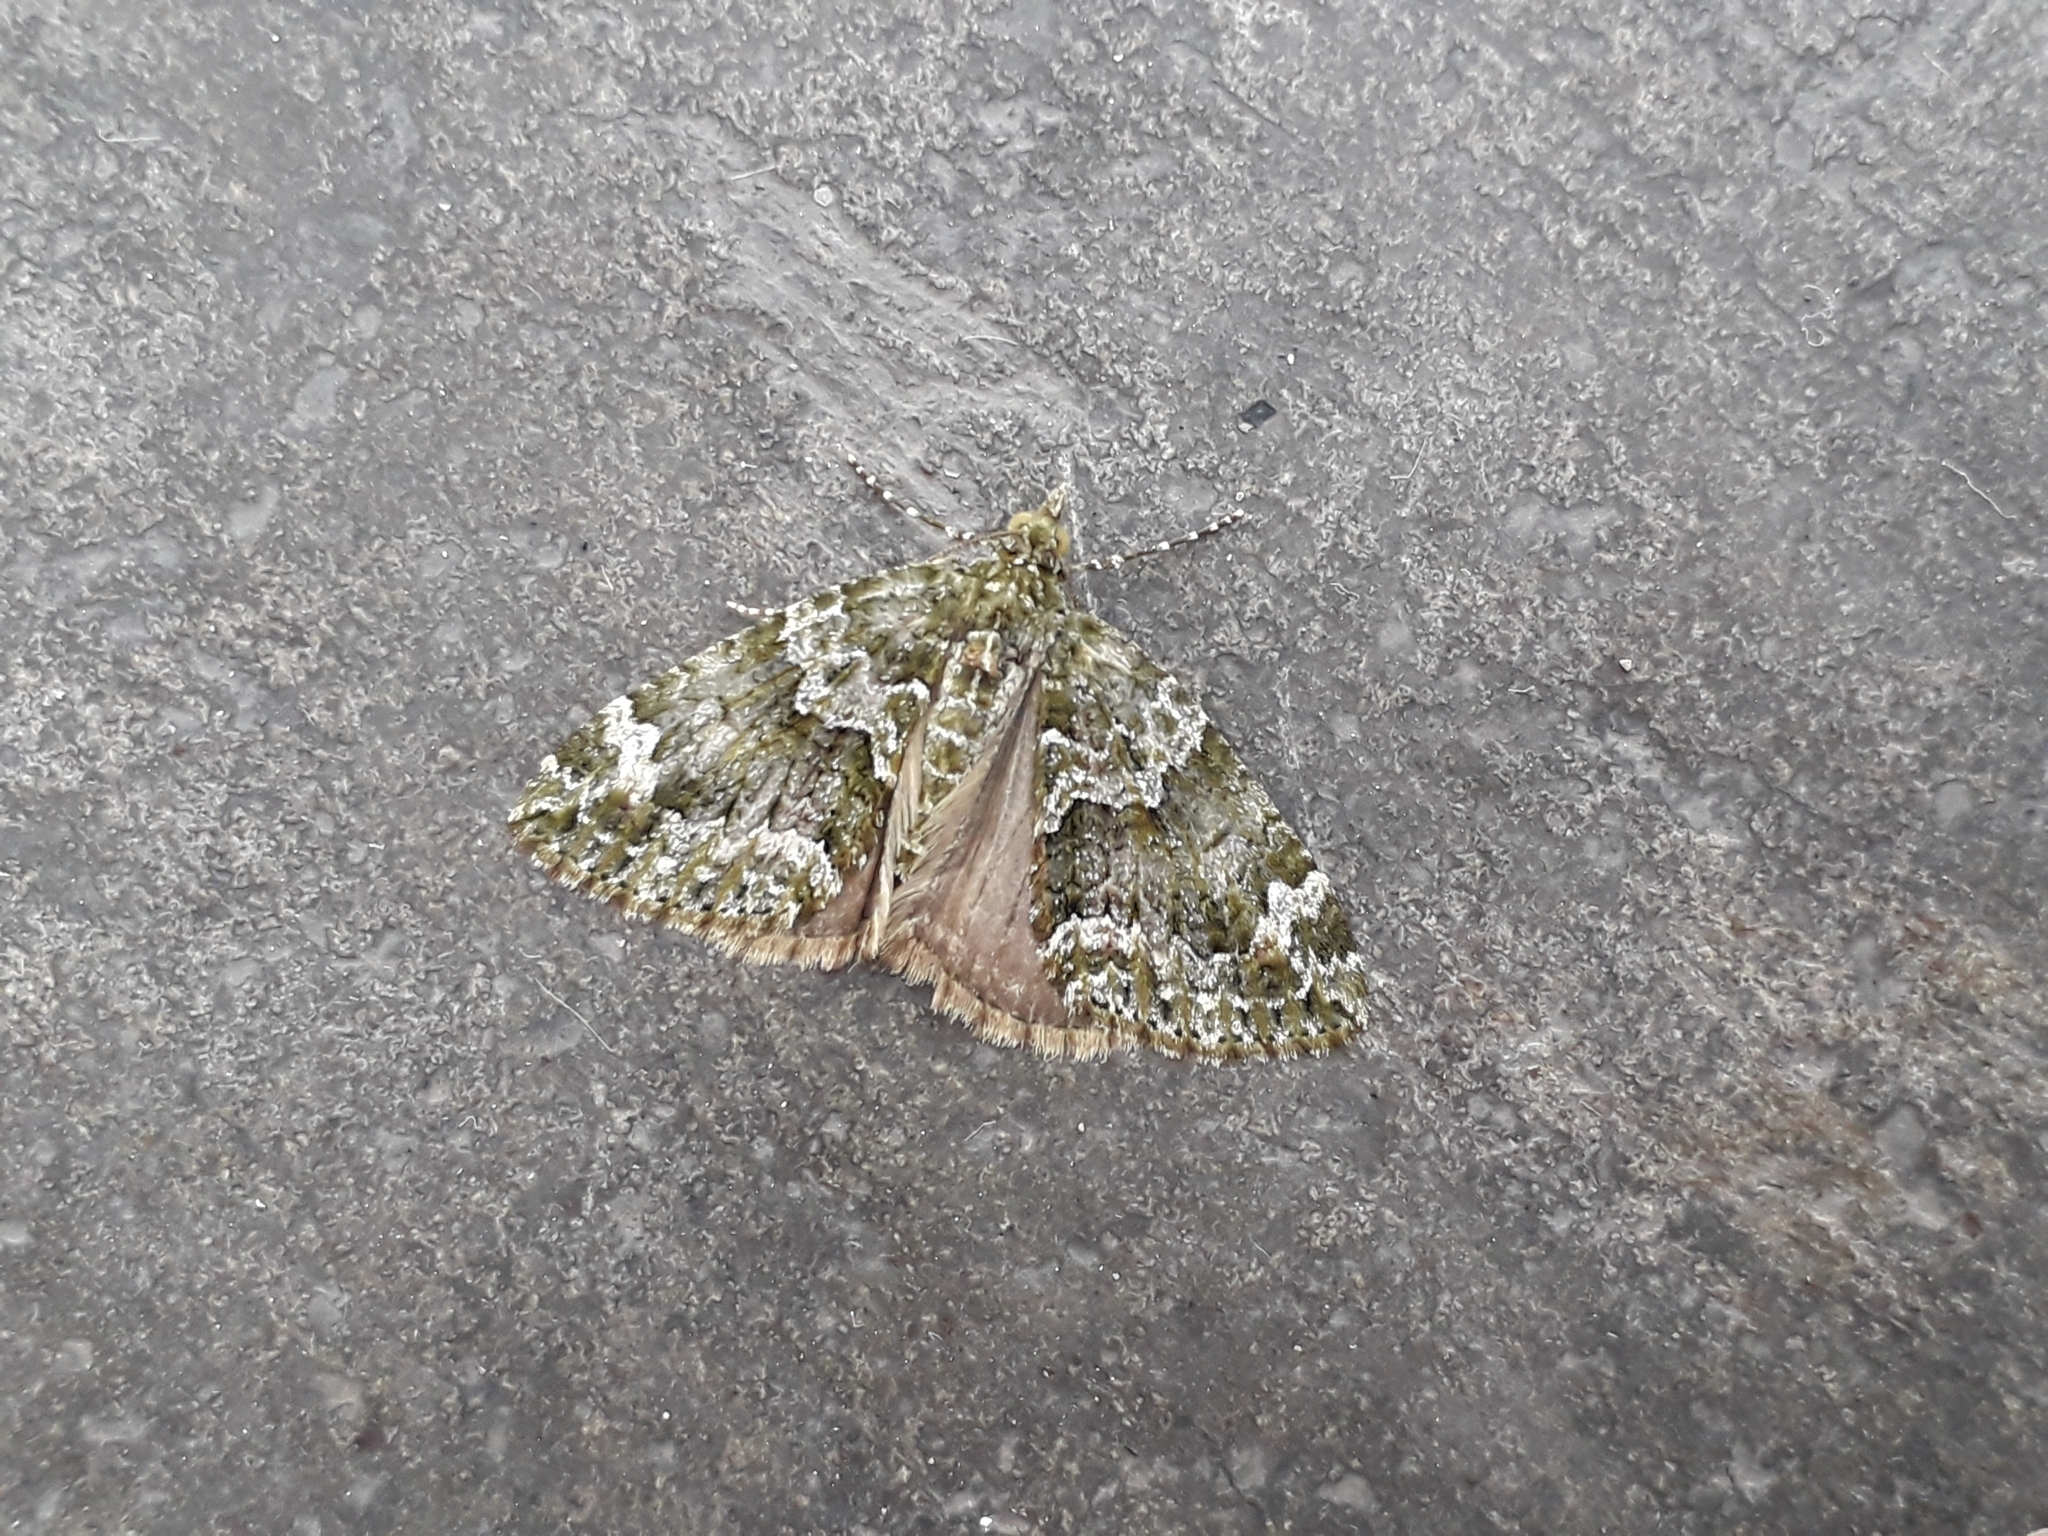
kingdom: Animalia
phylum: Arthropoda
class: Insecta
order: Lepidoptera
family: Geometridae
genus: Chloroclysta
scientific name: Chloroclysta siterata
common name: Red-green carpet
